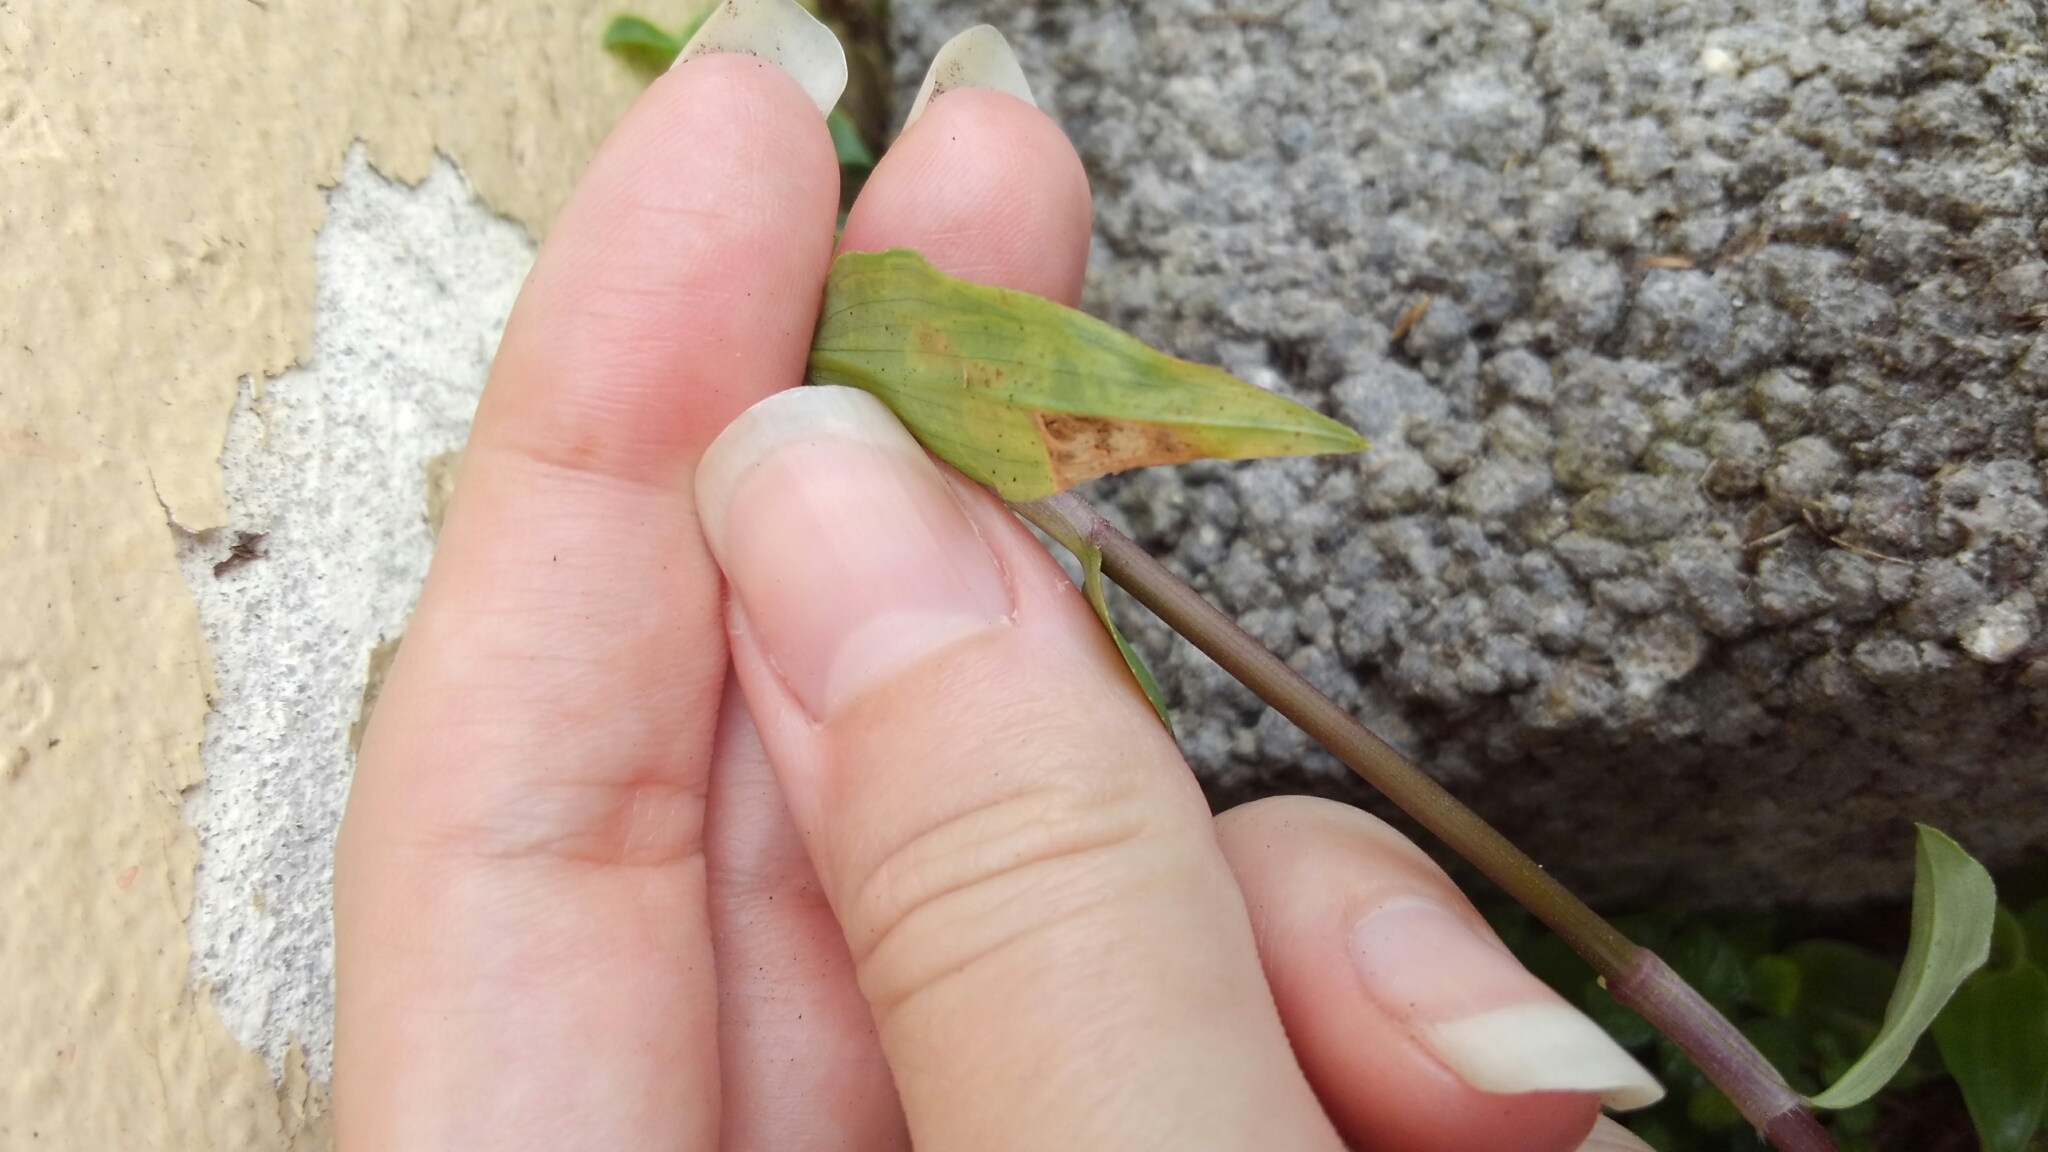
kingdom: Animalia
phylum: Arthropoda
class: Insecta
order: Diptera
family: Agromyzidae
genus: Liriomyza
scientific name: Liriomyza commelinae
